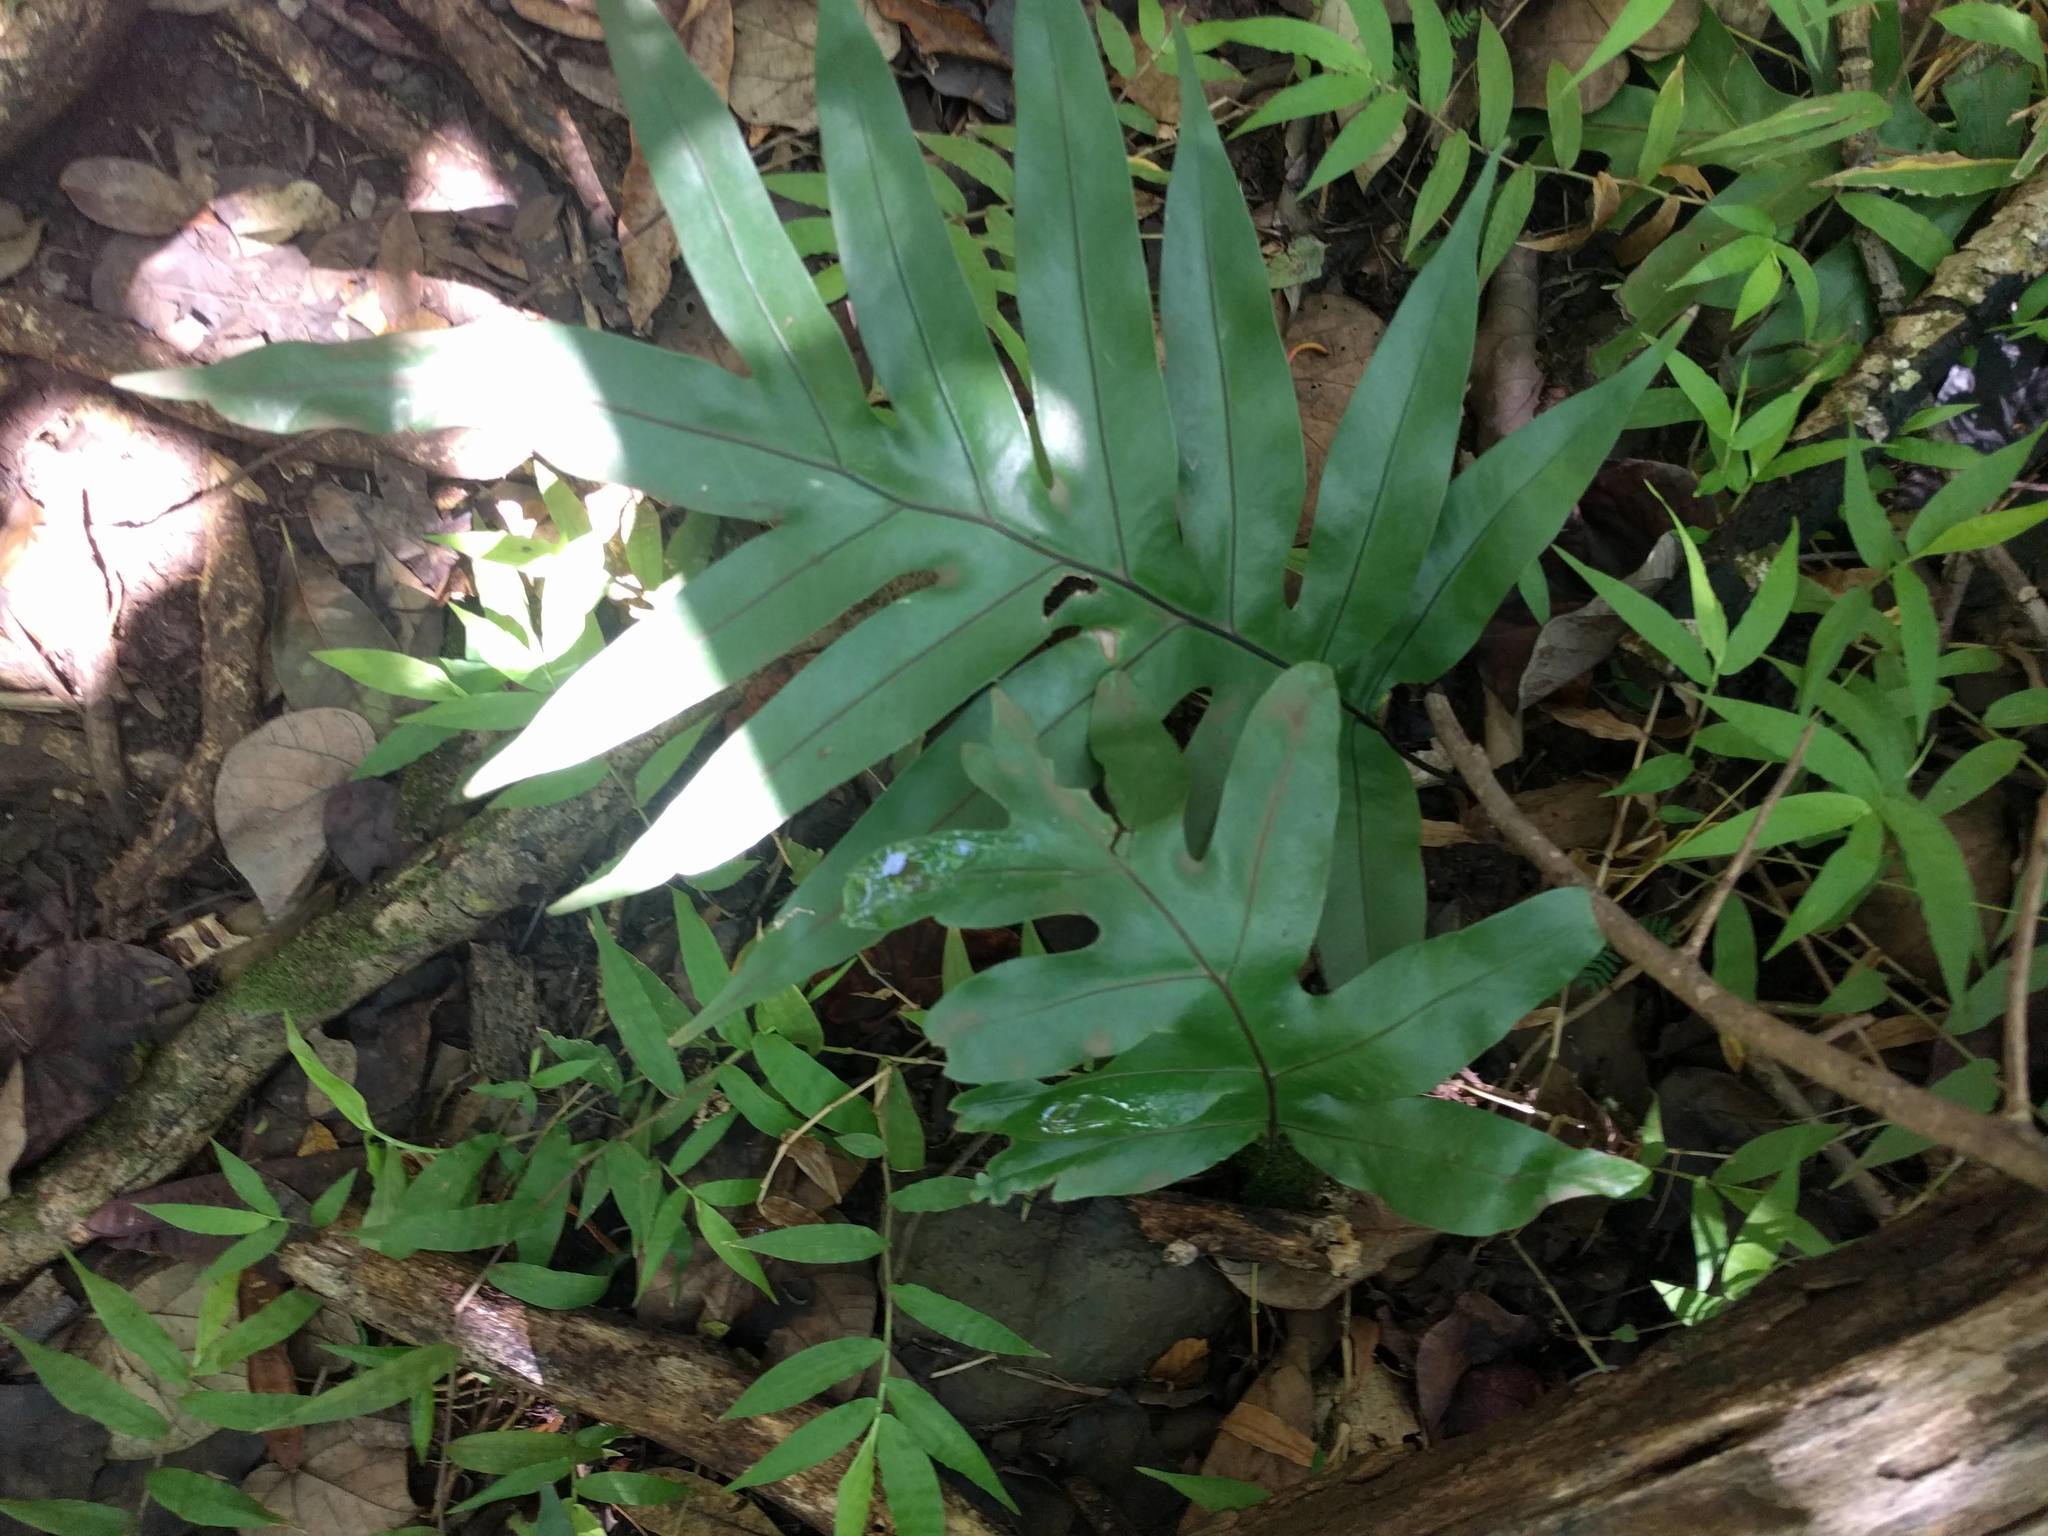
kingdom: Plantae
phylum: Tracheophyta
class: Polypodiopsida
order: Polypodiales
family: Polypodiaceae
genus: Microsorum
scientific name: Microsorum grossum
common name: Musk fern
